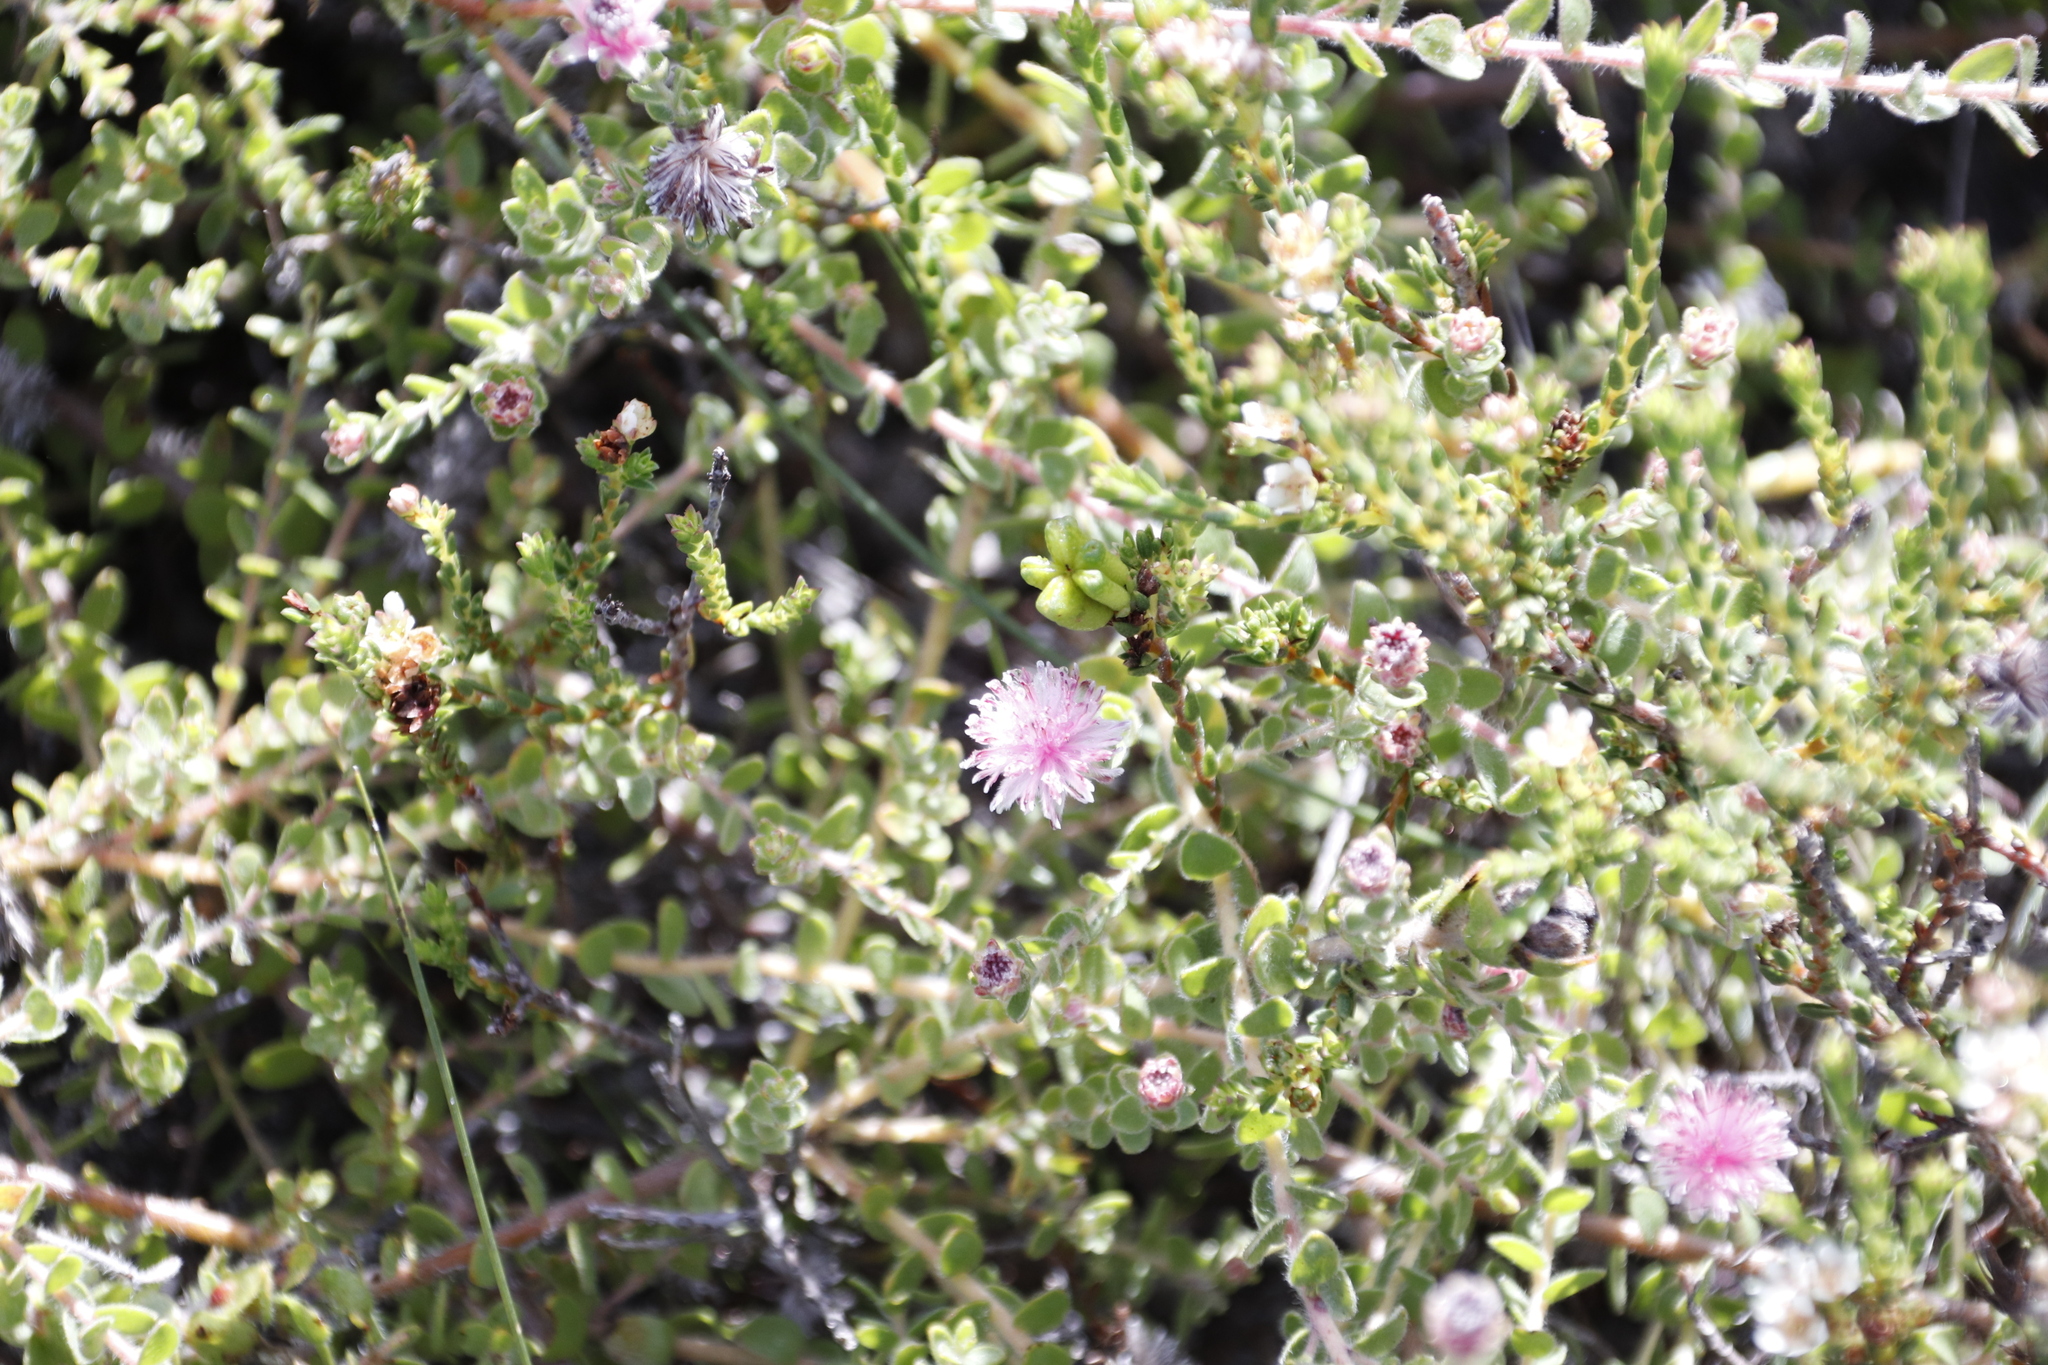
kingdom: Plantae
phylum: Tracheophyta
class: Magnoliopsida
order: Proteales
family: Proteaceae
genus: Diastella
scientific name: Diastella divaricata
